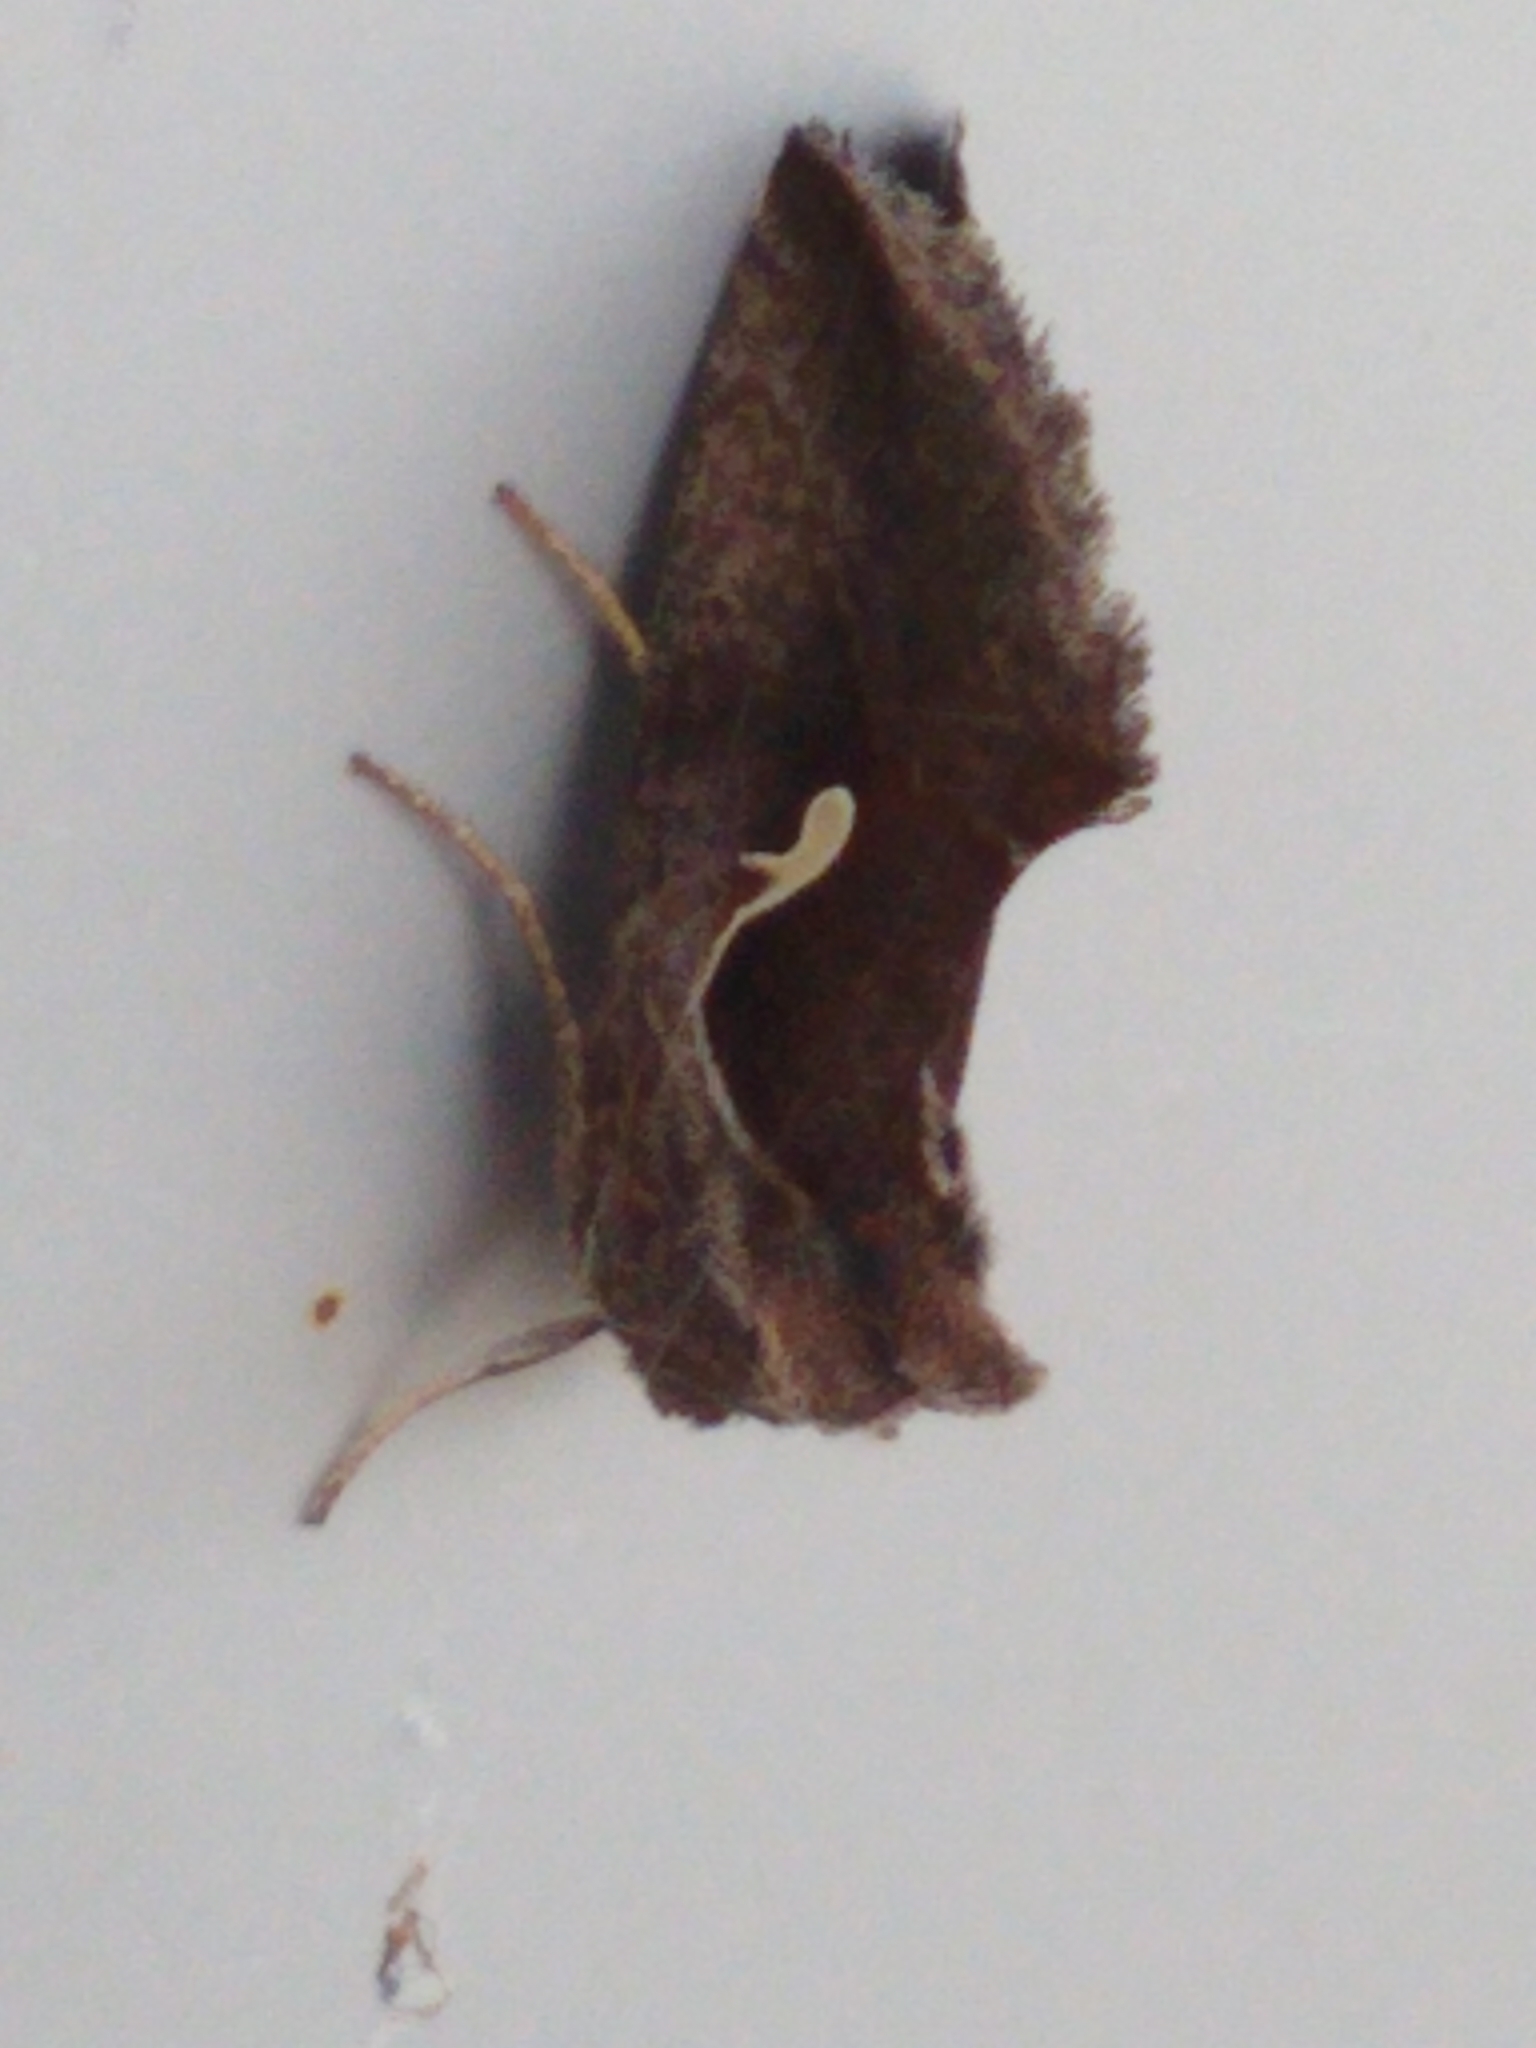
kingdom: Animalia
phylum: Arthropoda
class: Insecta
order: Lepidoptera
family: Noctuidae
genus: Anagrapha
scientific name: Anagrapha falcifera
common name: Celery looper
